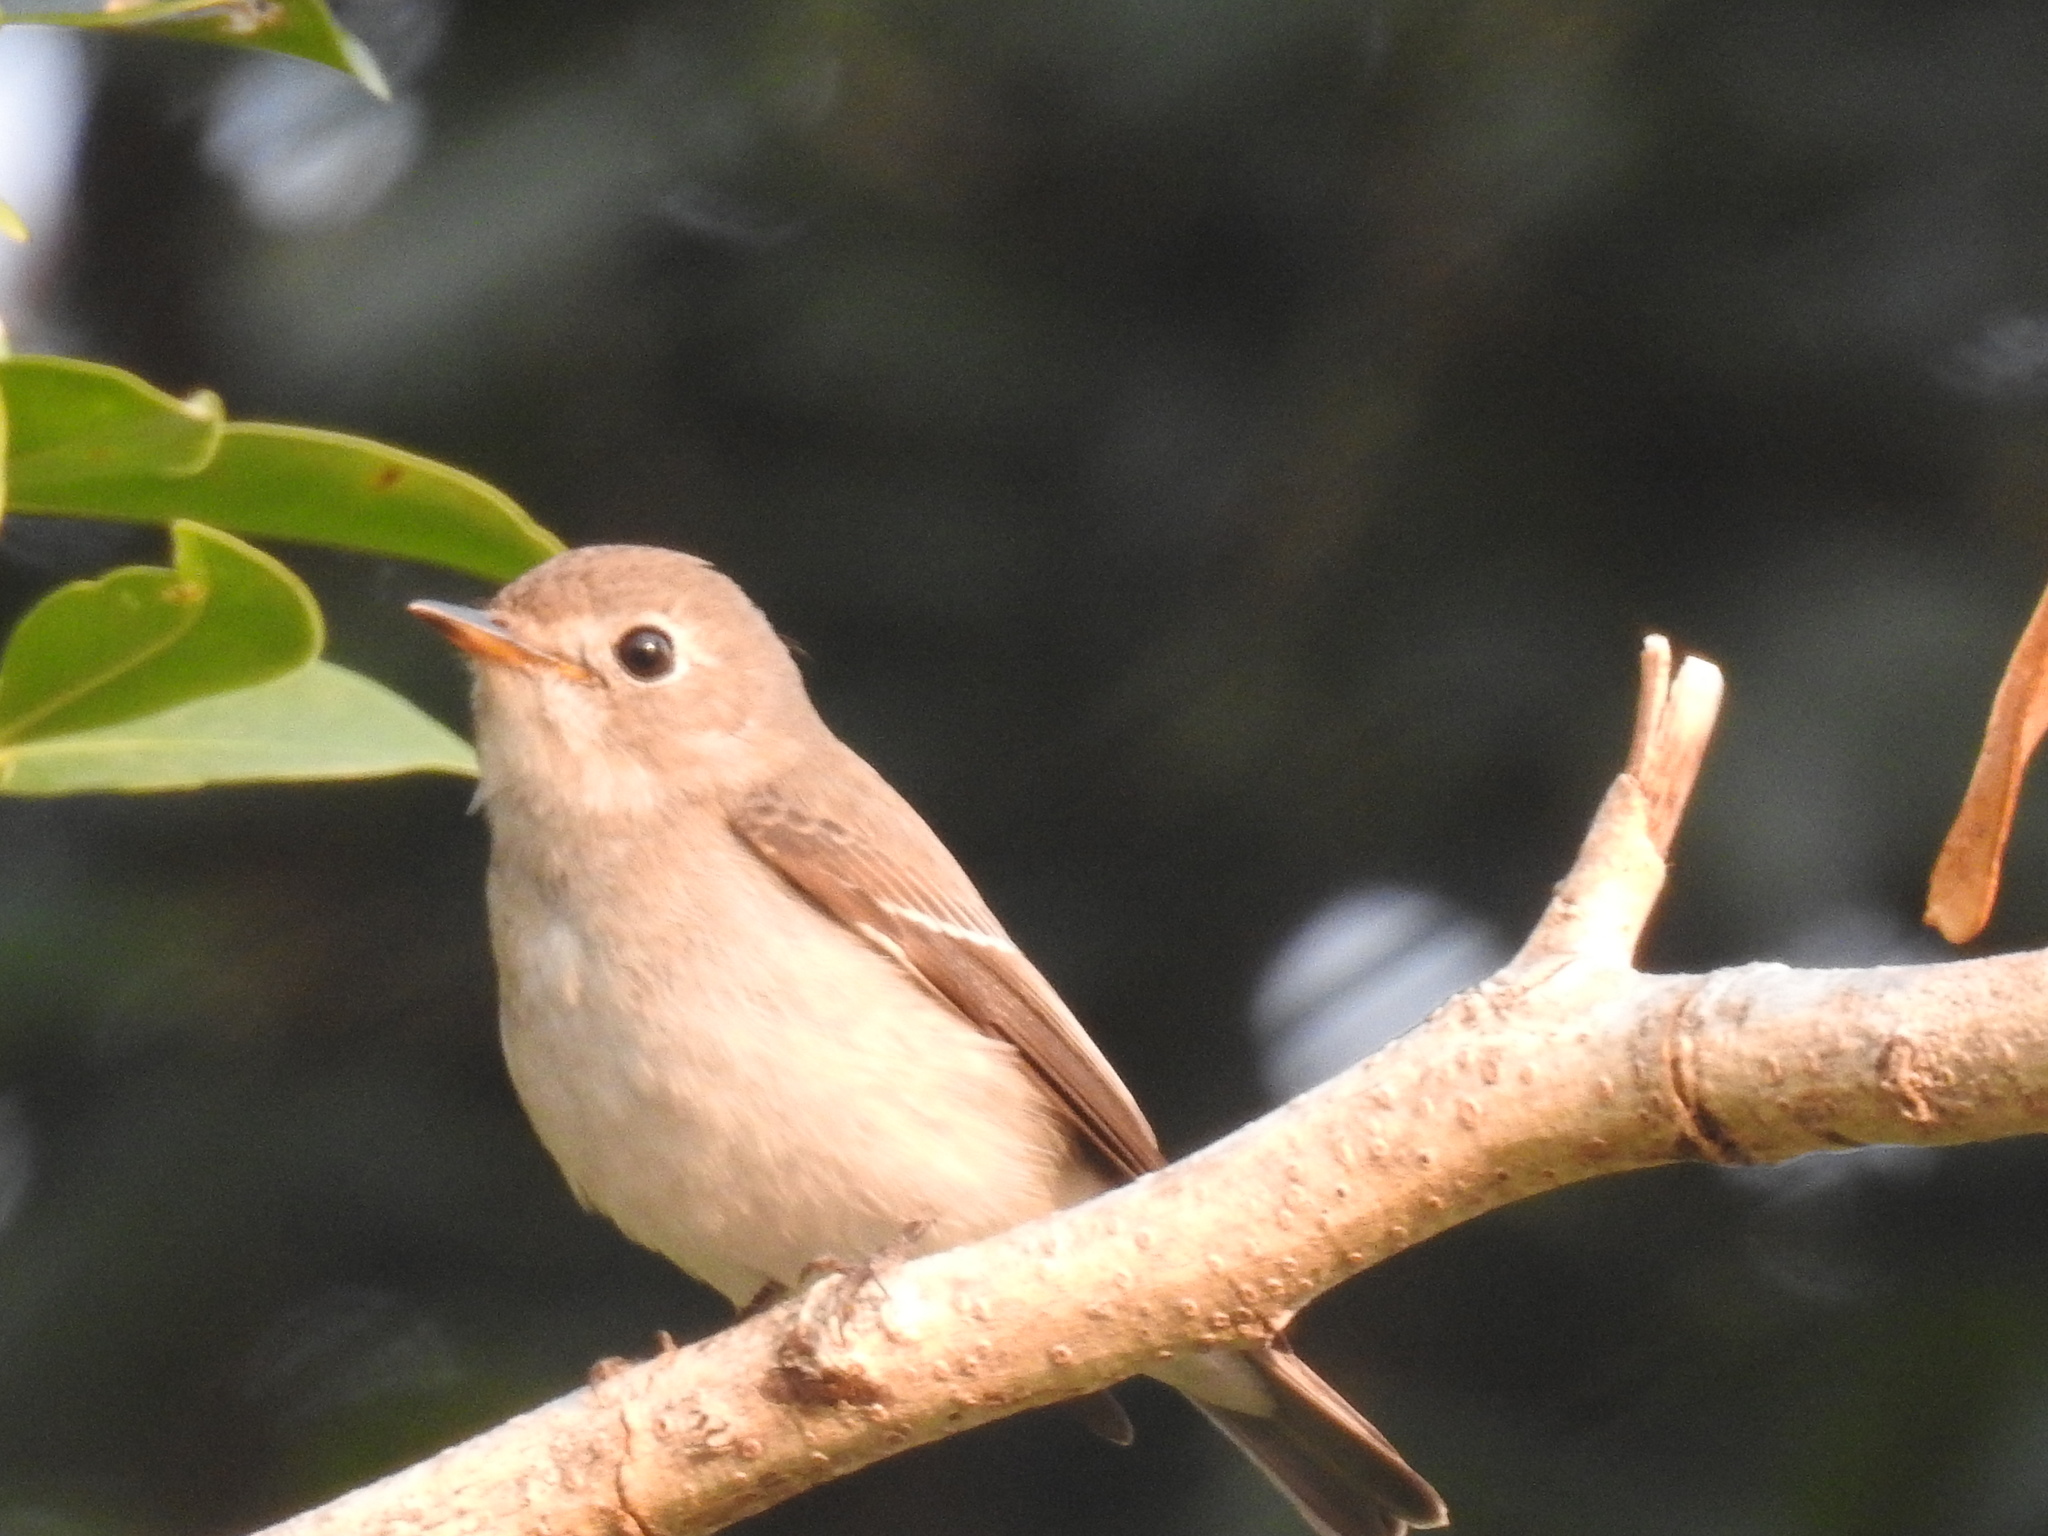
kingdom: Animalia
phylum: Chordata
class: Aves
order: Passeriformes
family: Muscicapidae
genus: Muscicapa
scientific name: Muscicapa latirostris
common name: Asian brown flycatcher
